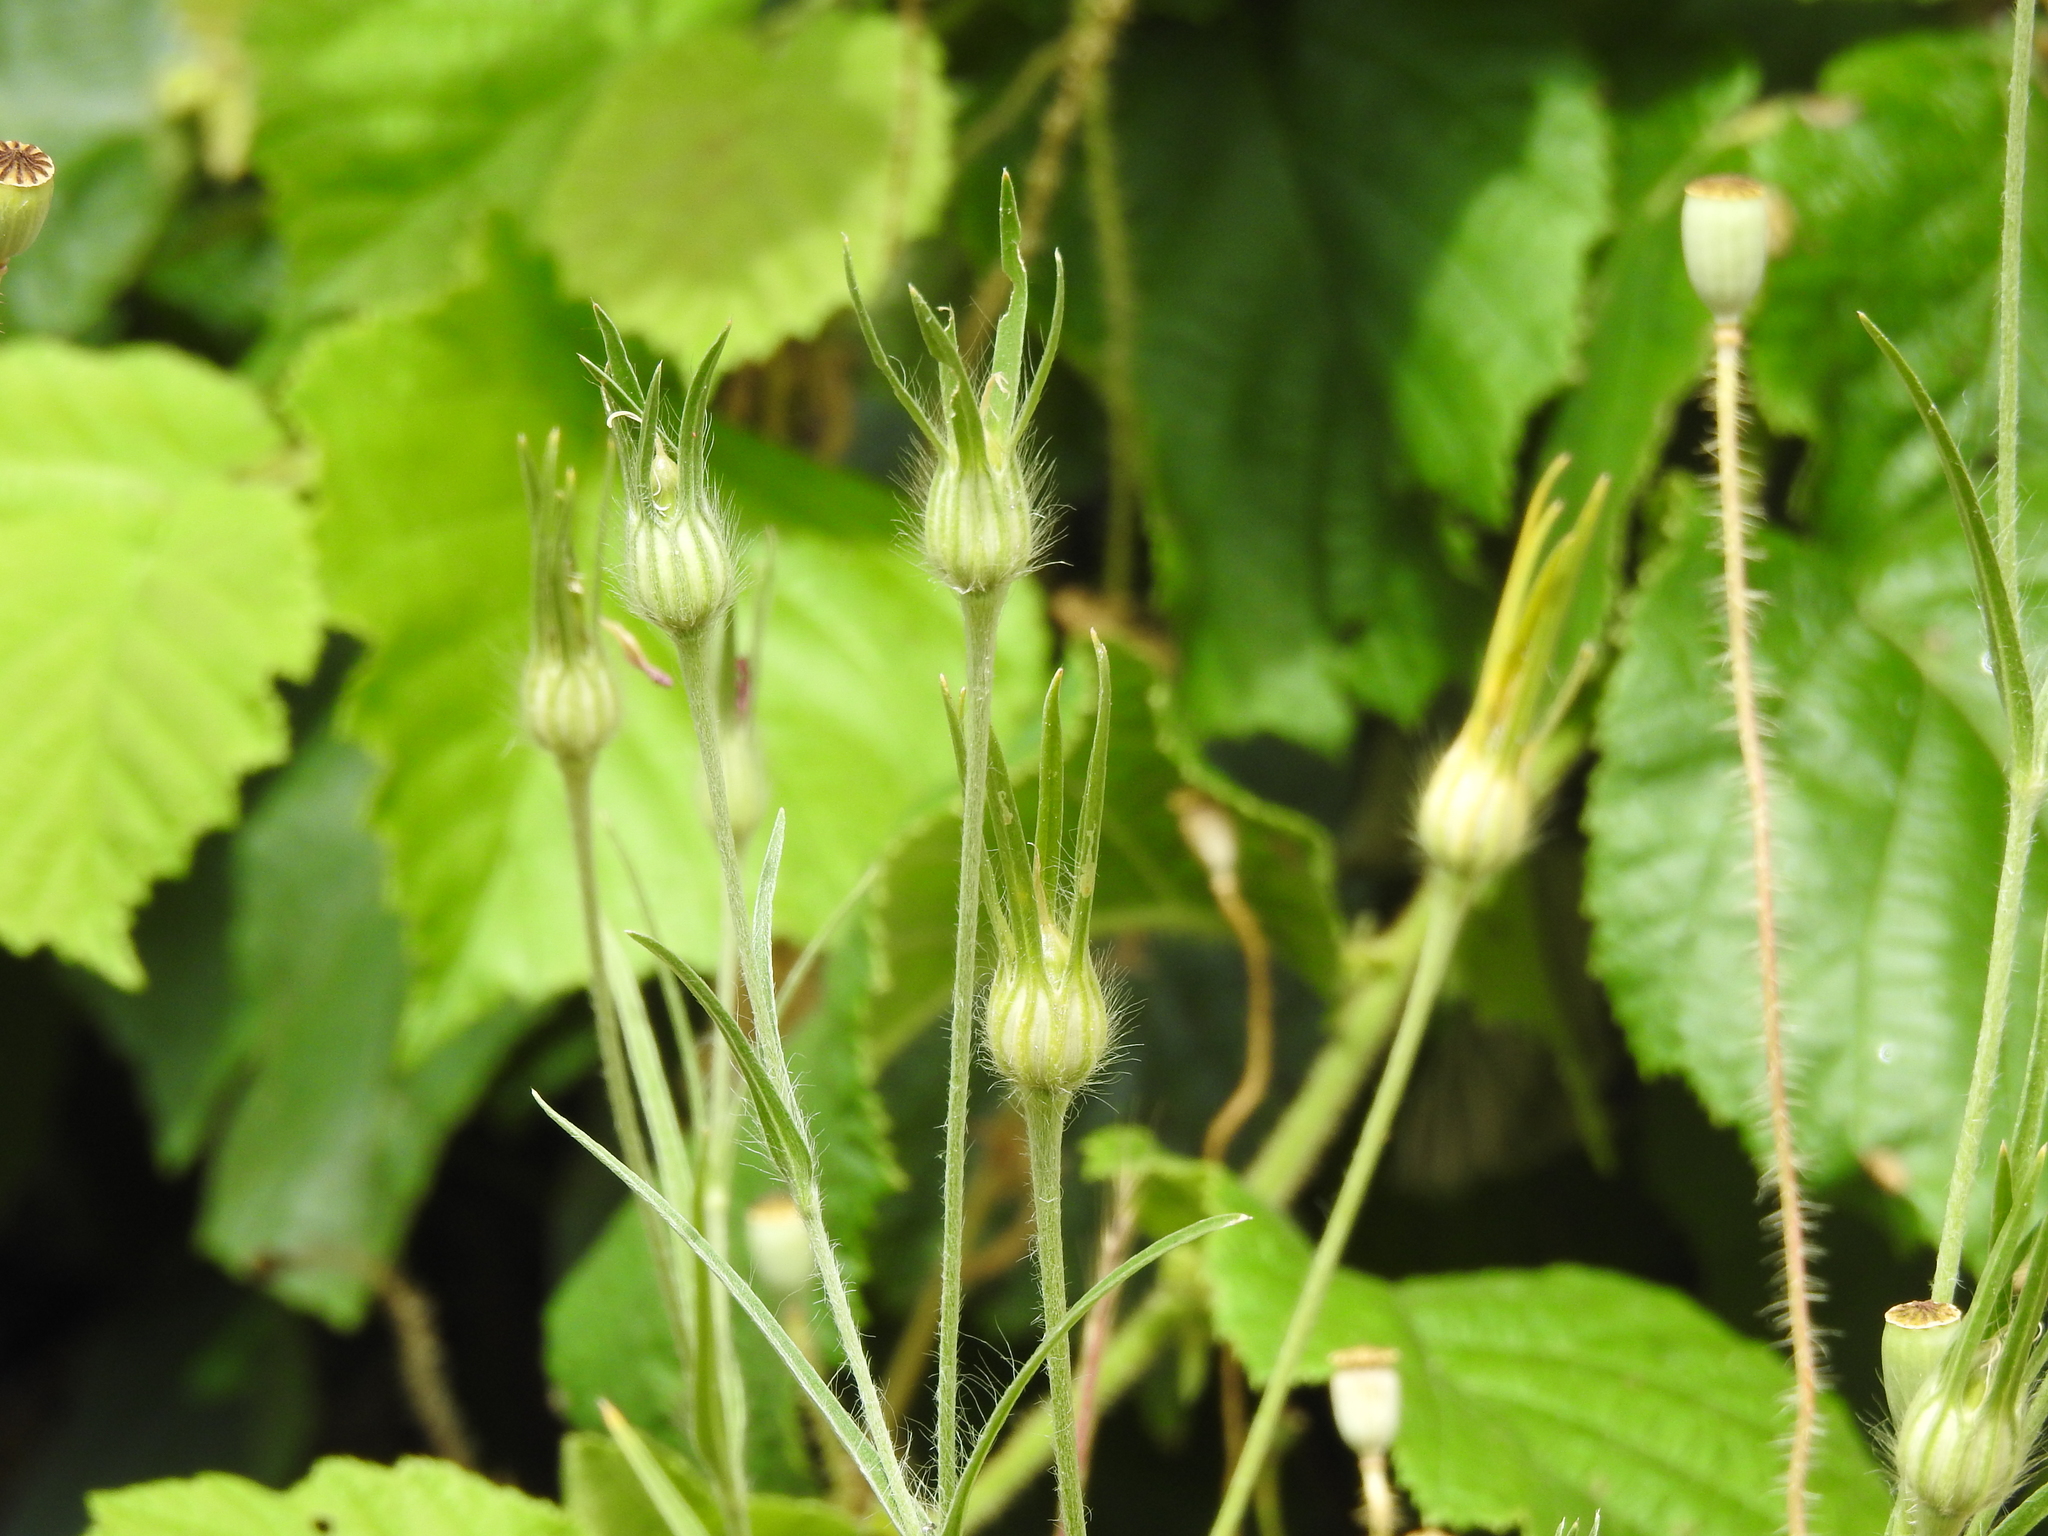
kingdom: Plantae
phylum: Tracheophyta
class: Magnoliopsida
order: Caryophyllales
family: Caryophyllaceae
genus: Agrostemma
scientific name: Agrostemma githago
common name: Common corncockle
